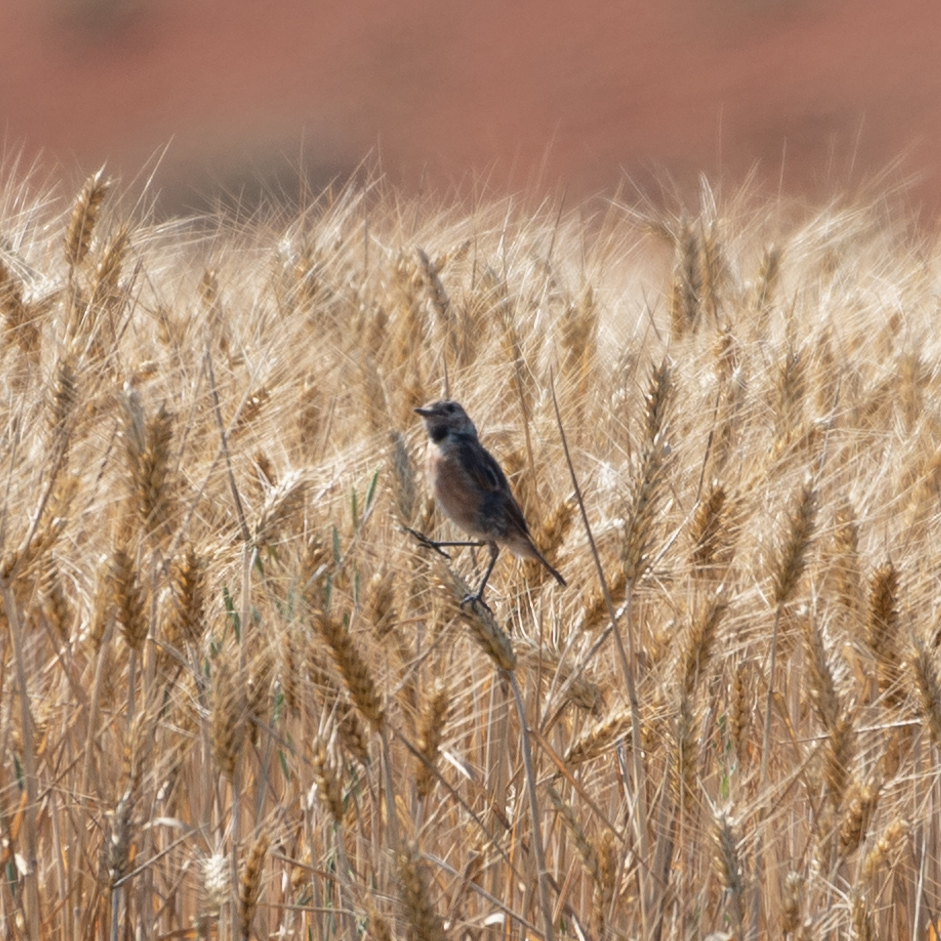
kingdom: Animalia
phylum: Chordata
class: Aves
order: Passeriformes
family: Muscicapidae
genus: Saxicola
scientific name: Saxicola rubicola
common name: European stonechat
